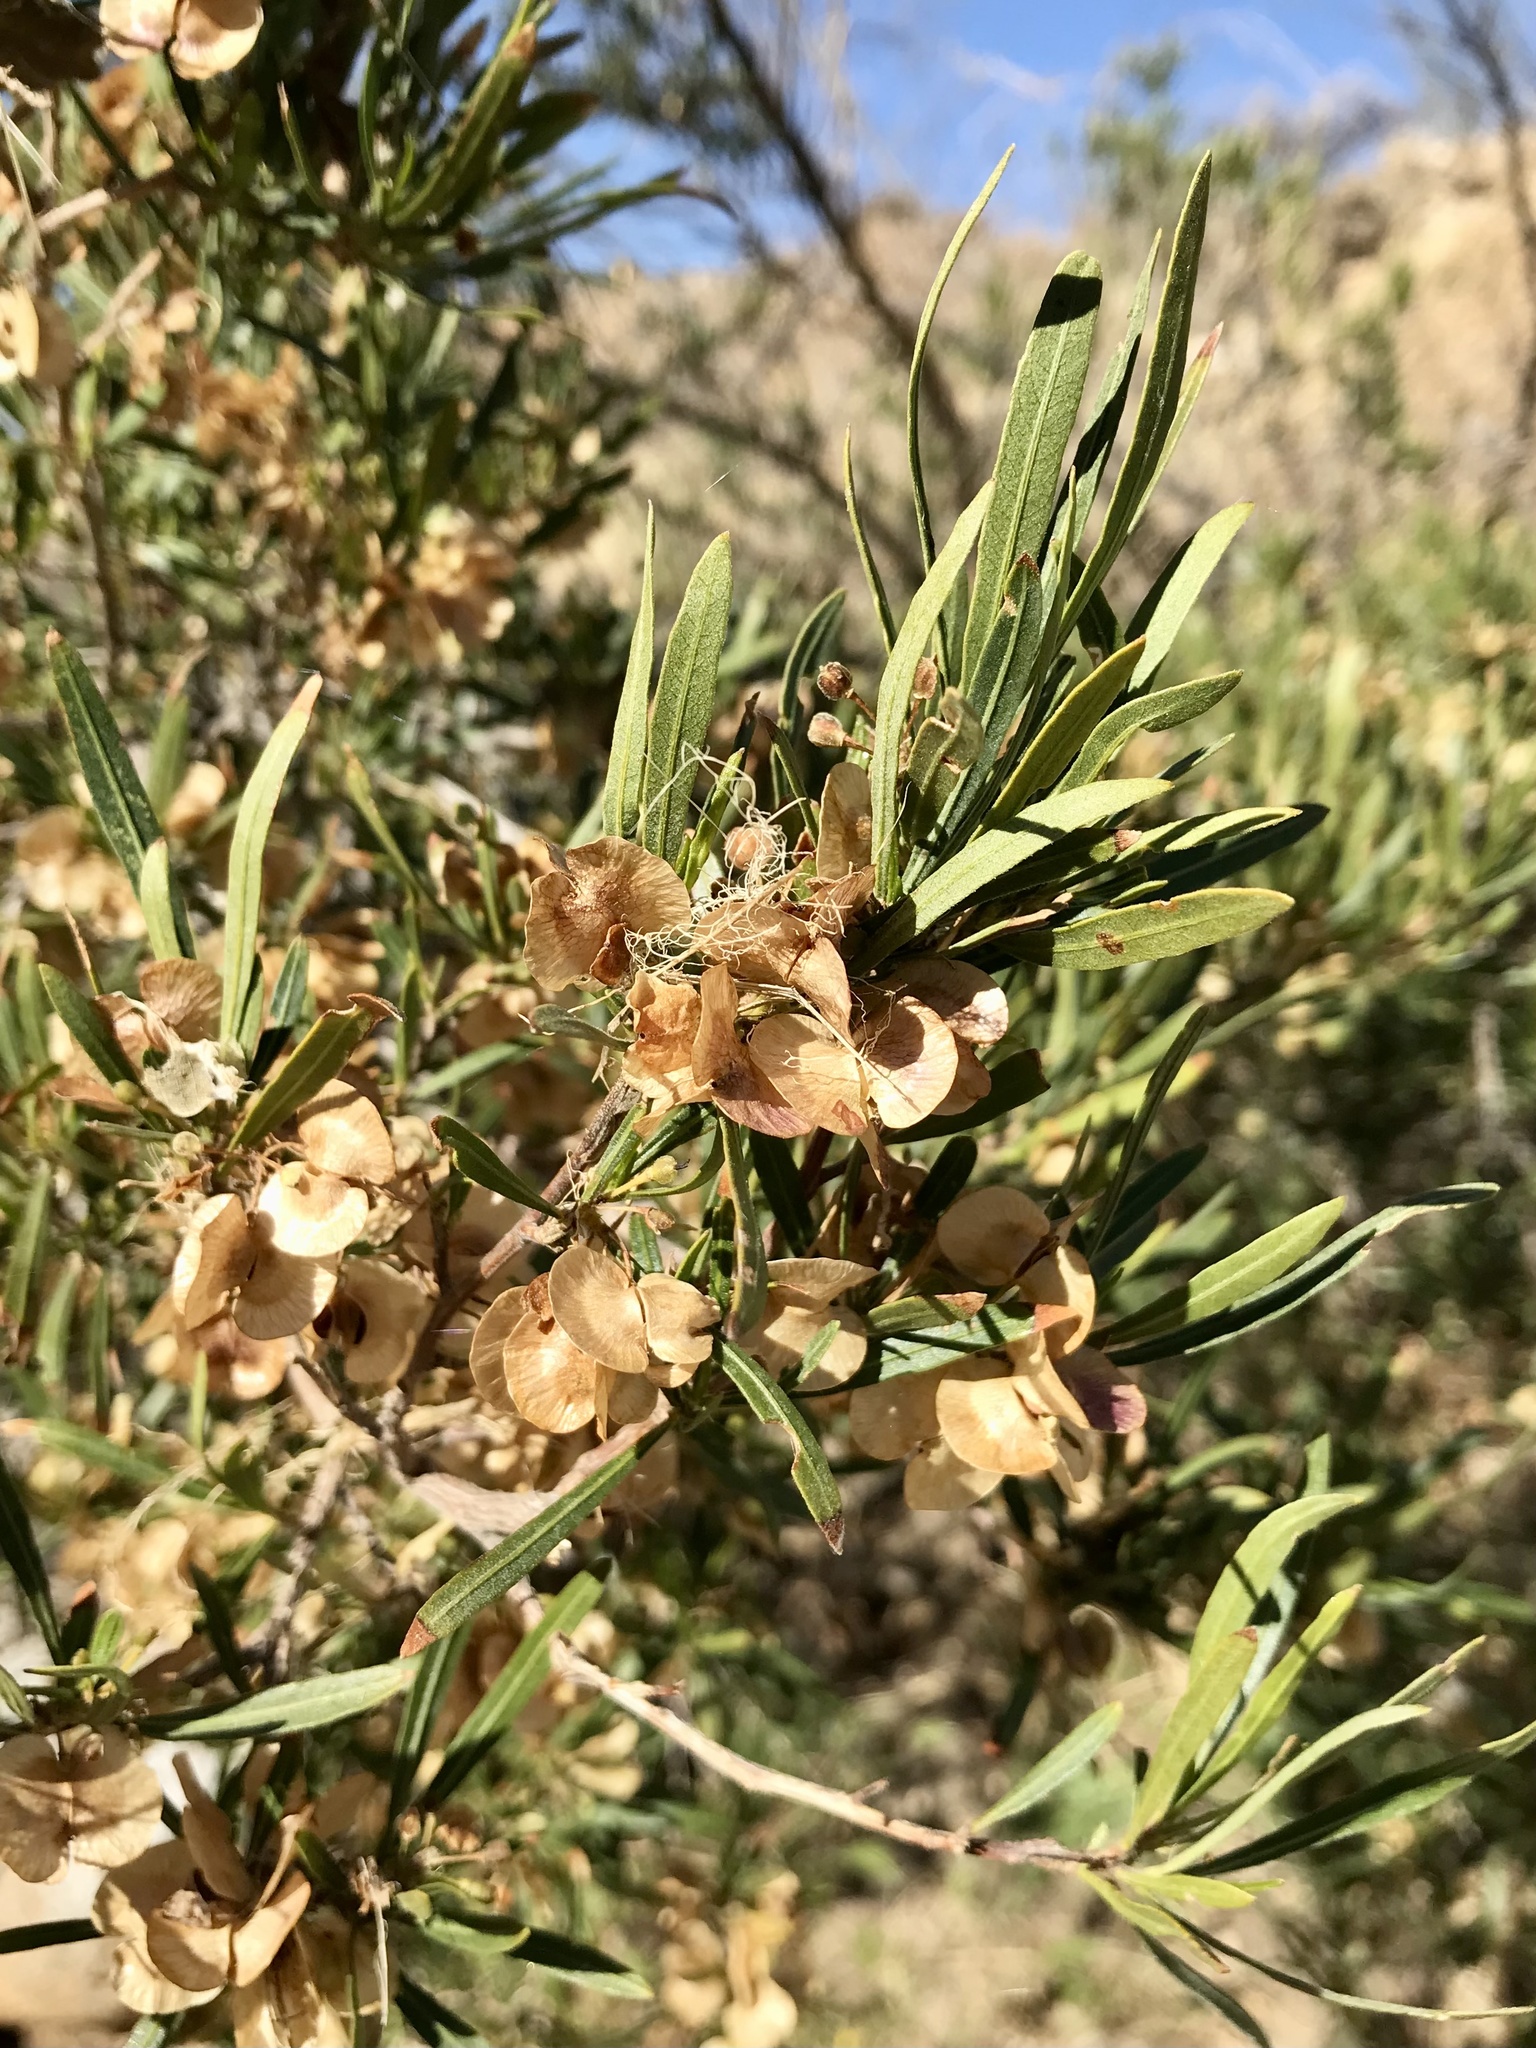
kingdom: Plantae
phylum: Tracheophyta
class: Magnoliopsida
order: Sapindales
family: Sapindaceae
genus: Dodonaea
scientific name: Dodonaea viscosa
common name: Hopbush
